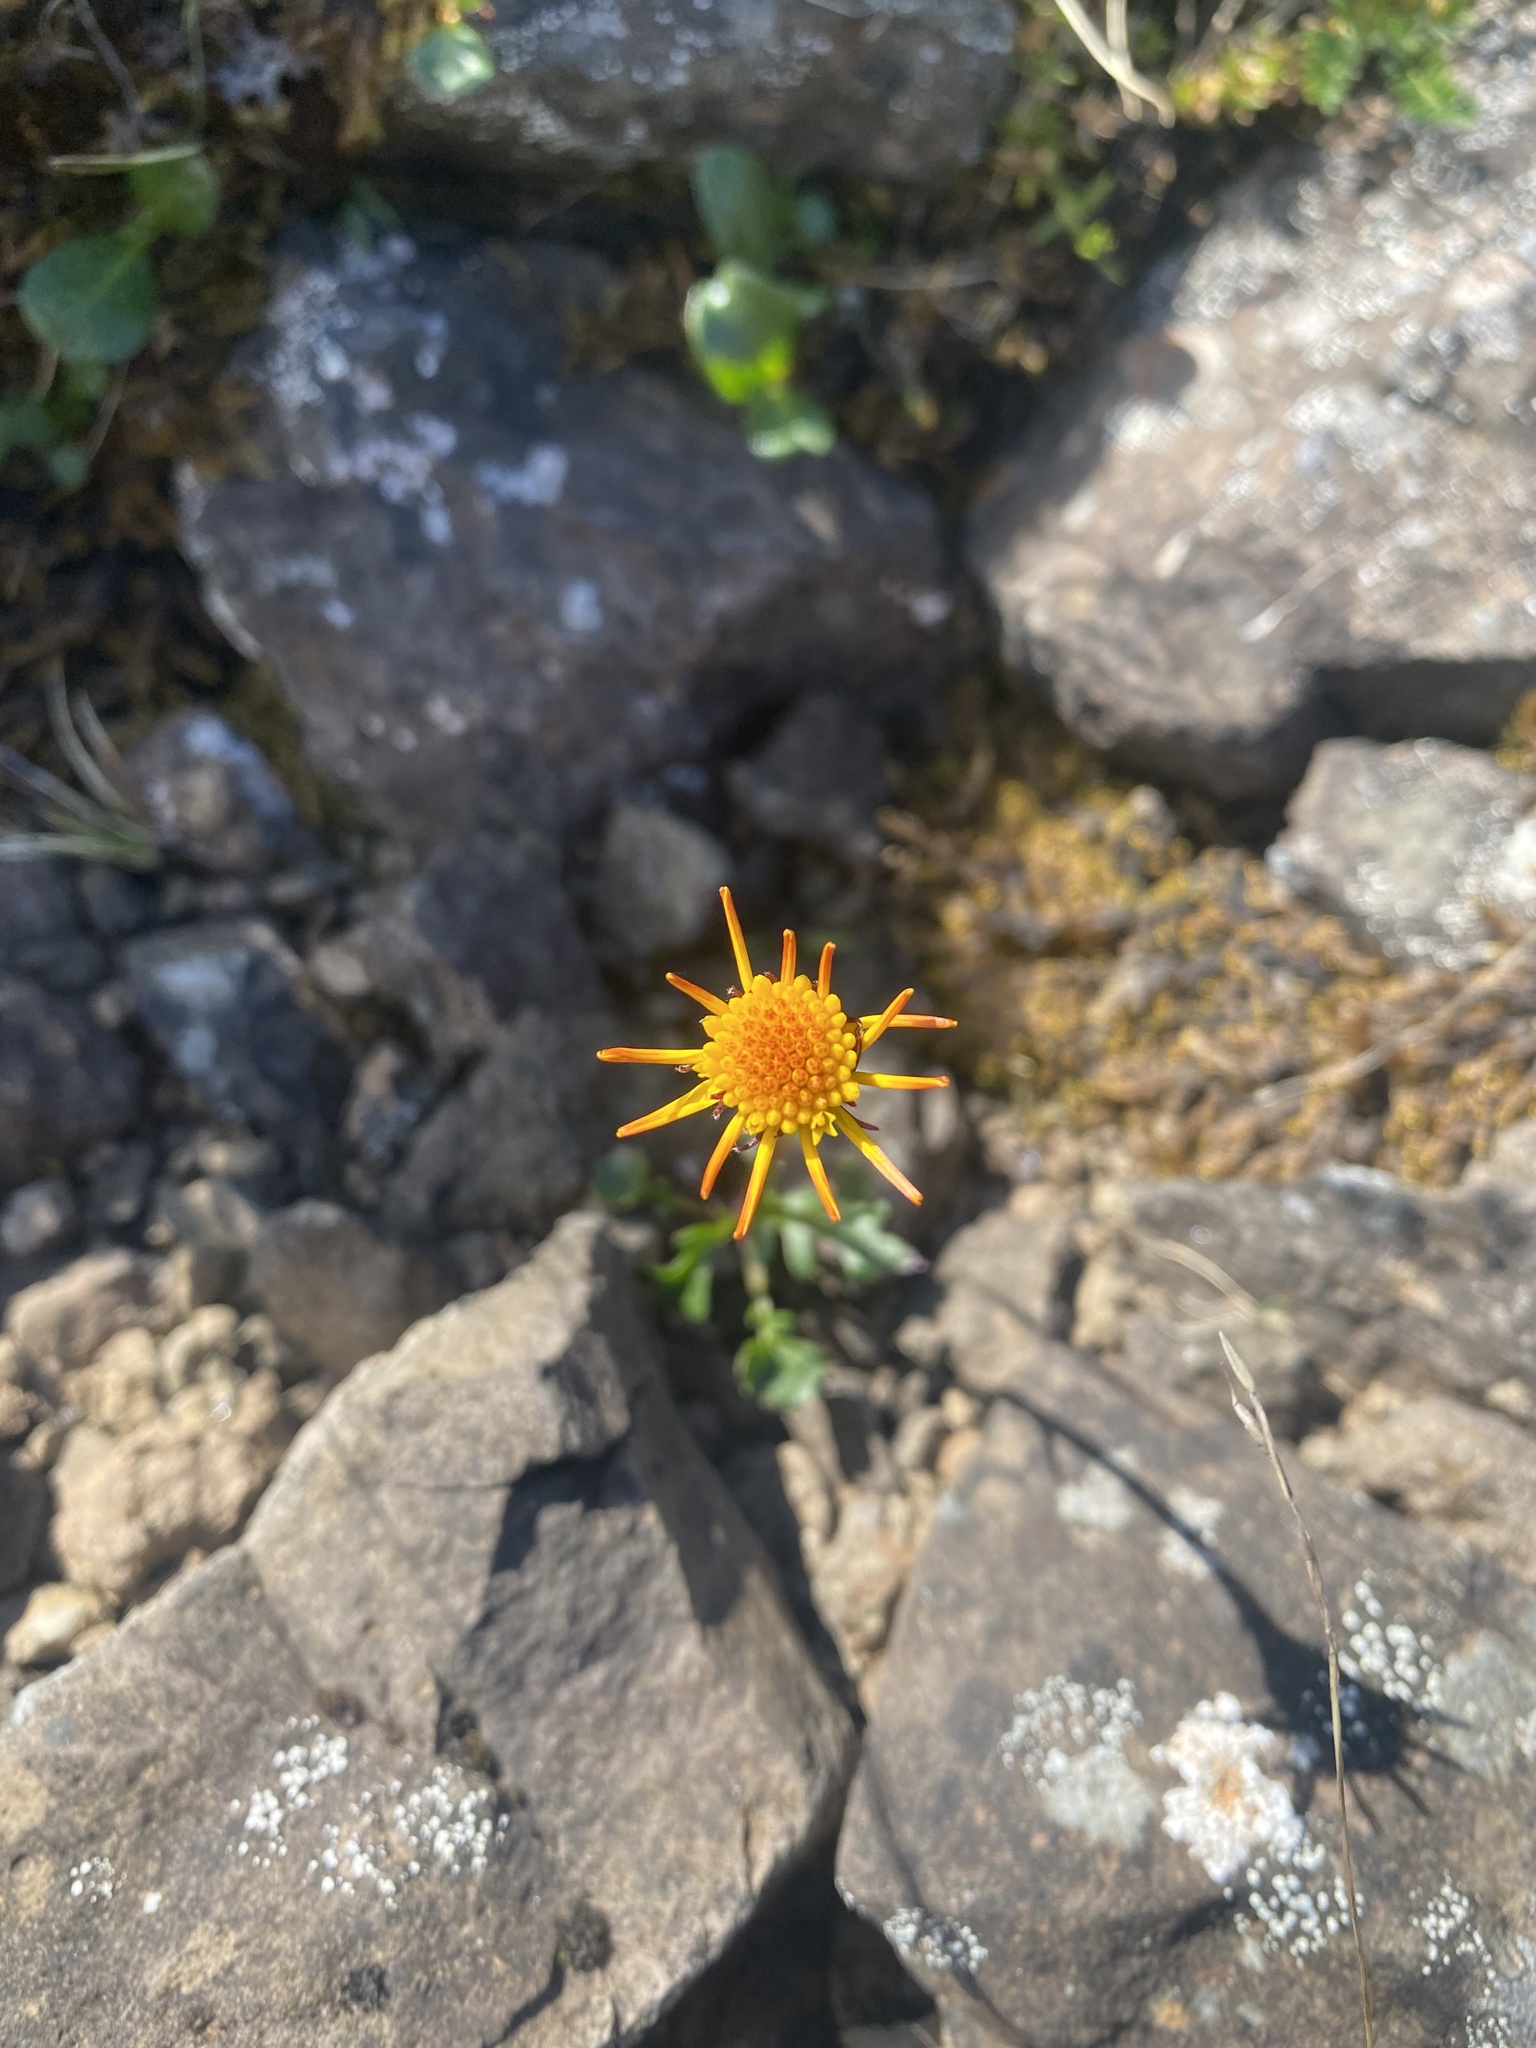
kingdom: Plantae
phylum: Tracheophyta
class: Magnoliopsida
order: Asterales
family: Asteraceae
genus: Packera
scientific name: Packera heterophylla
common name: Arctic butterweed
